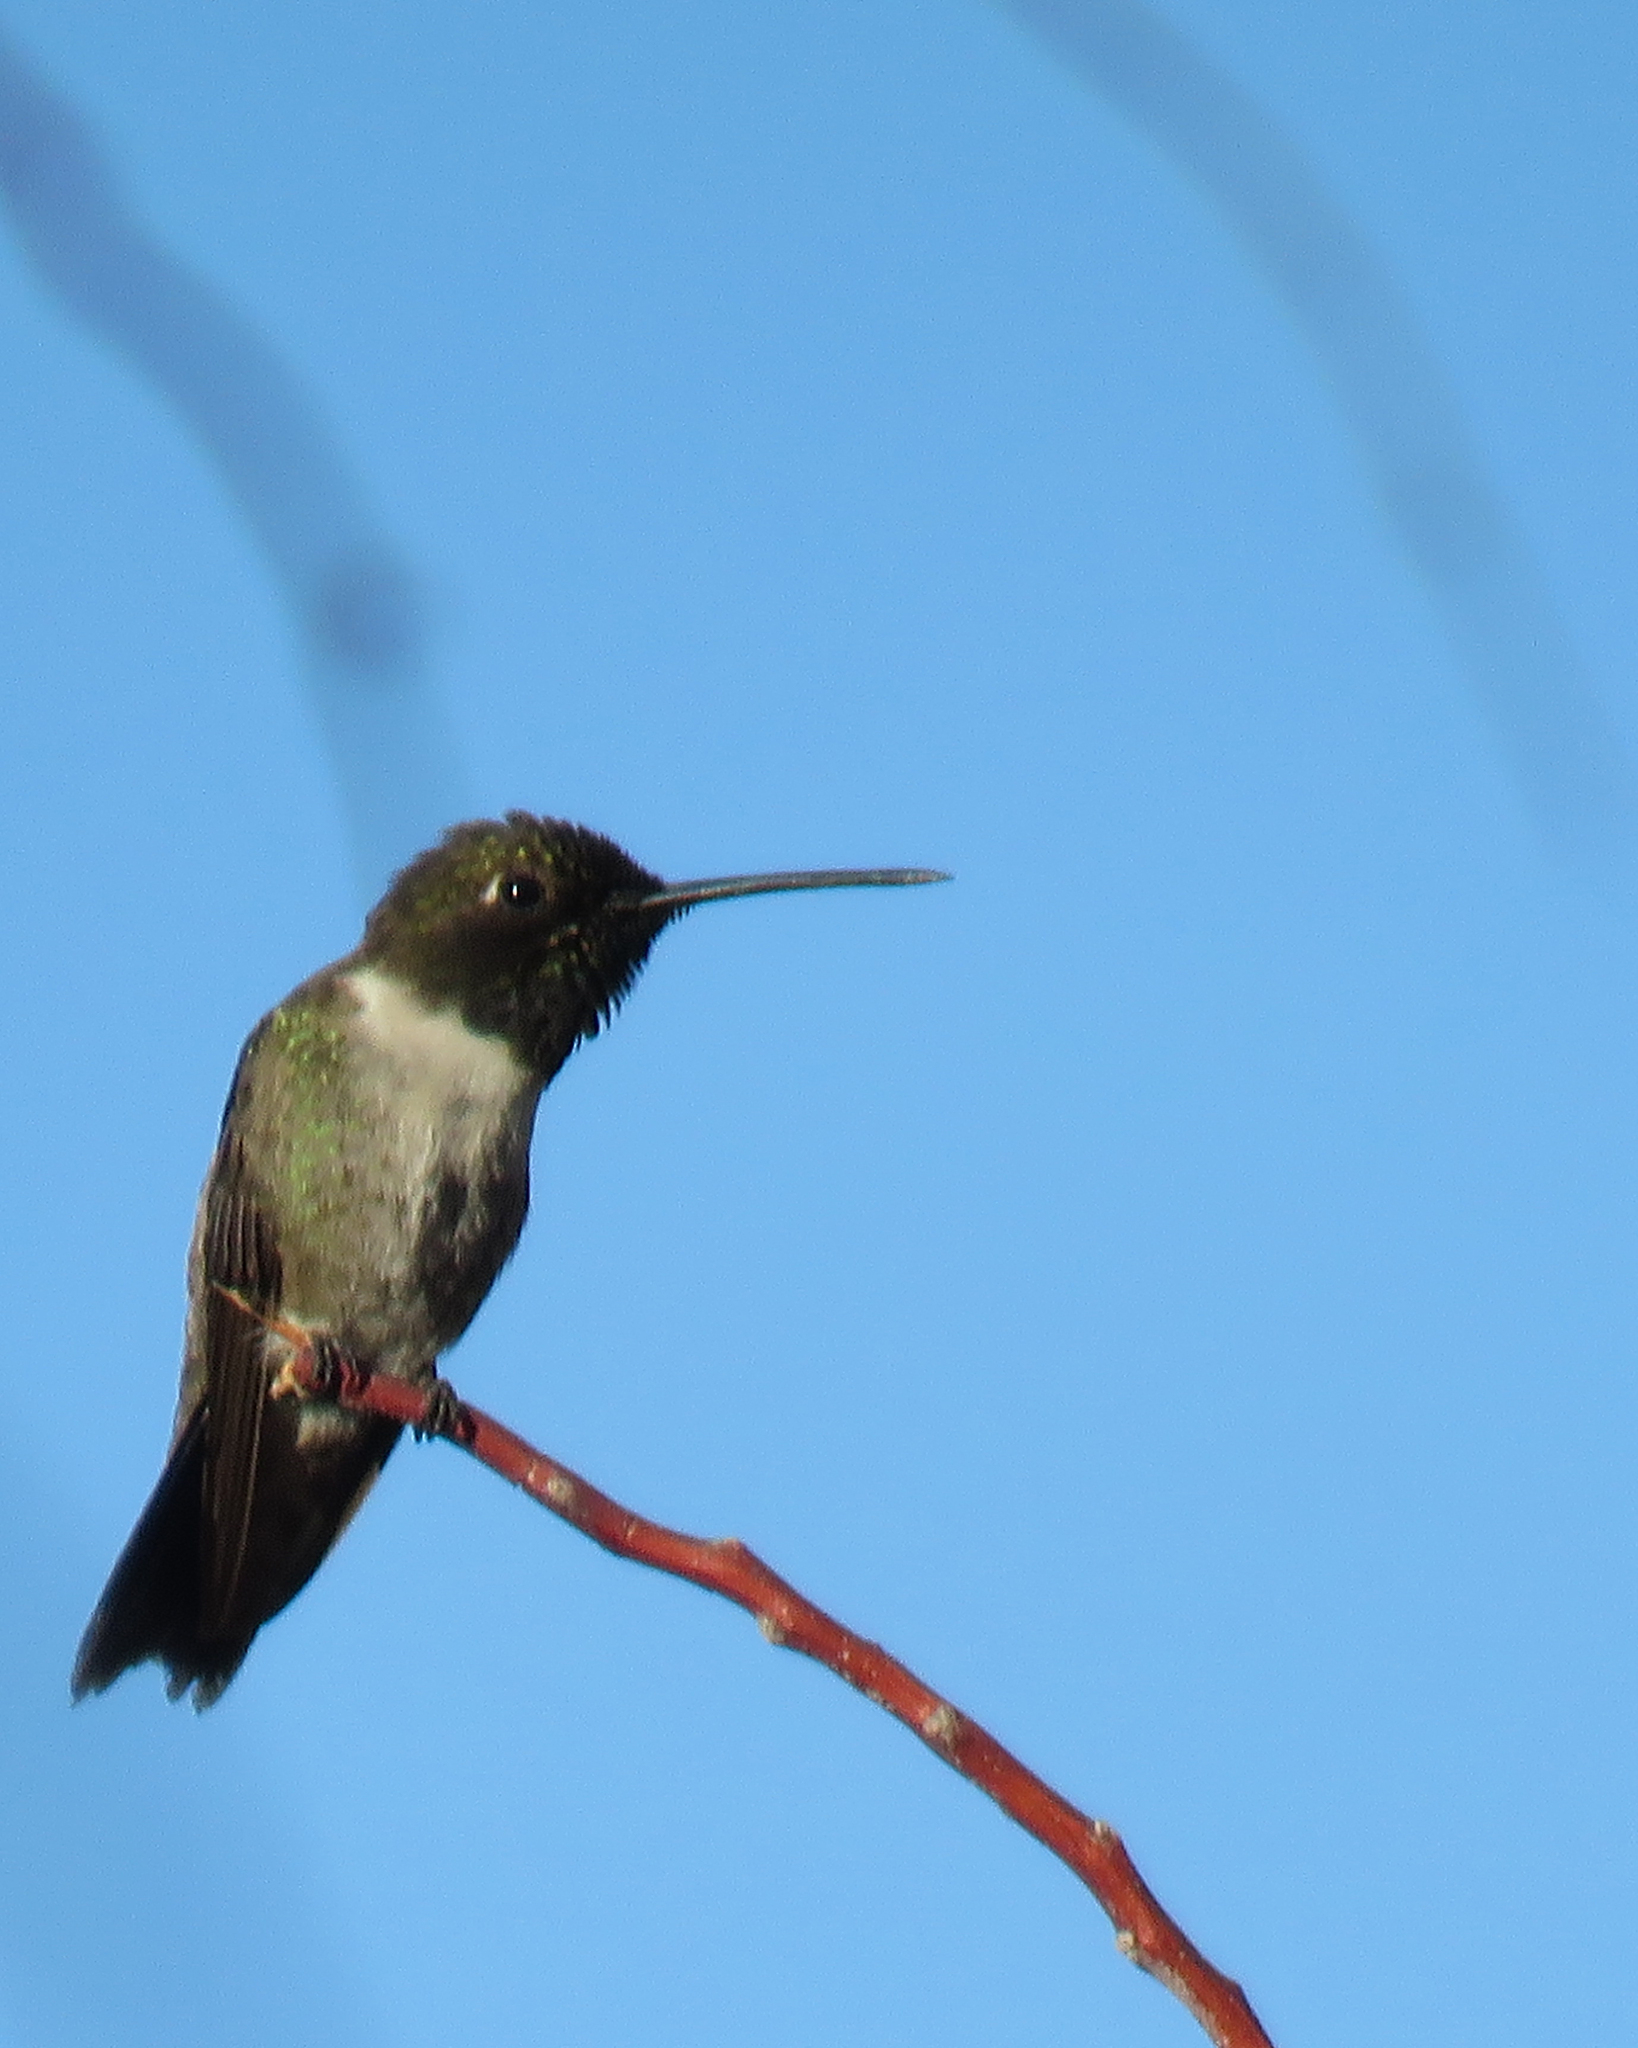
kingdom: Animalia
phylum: Chordata
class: Aves
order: Apodiformes
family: Trochilidae
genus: Archilochus
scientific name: Archilochus alexandri
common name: Black-chinned hummingbird
